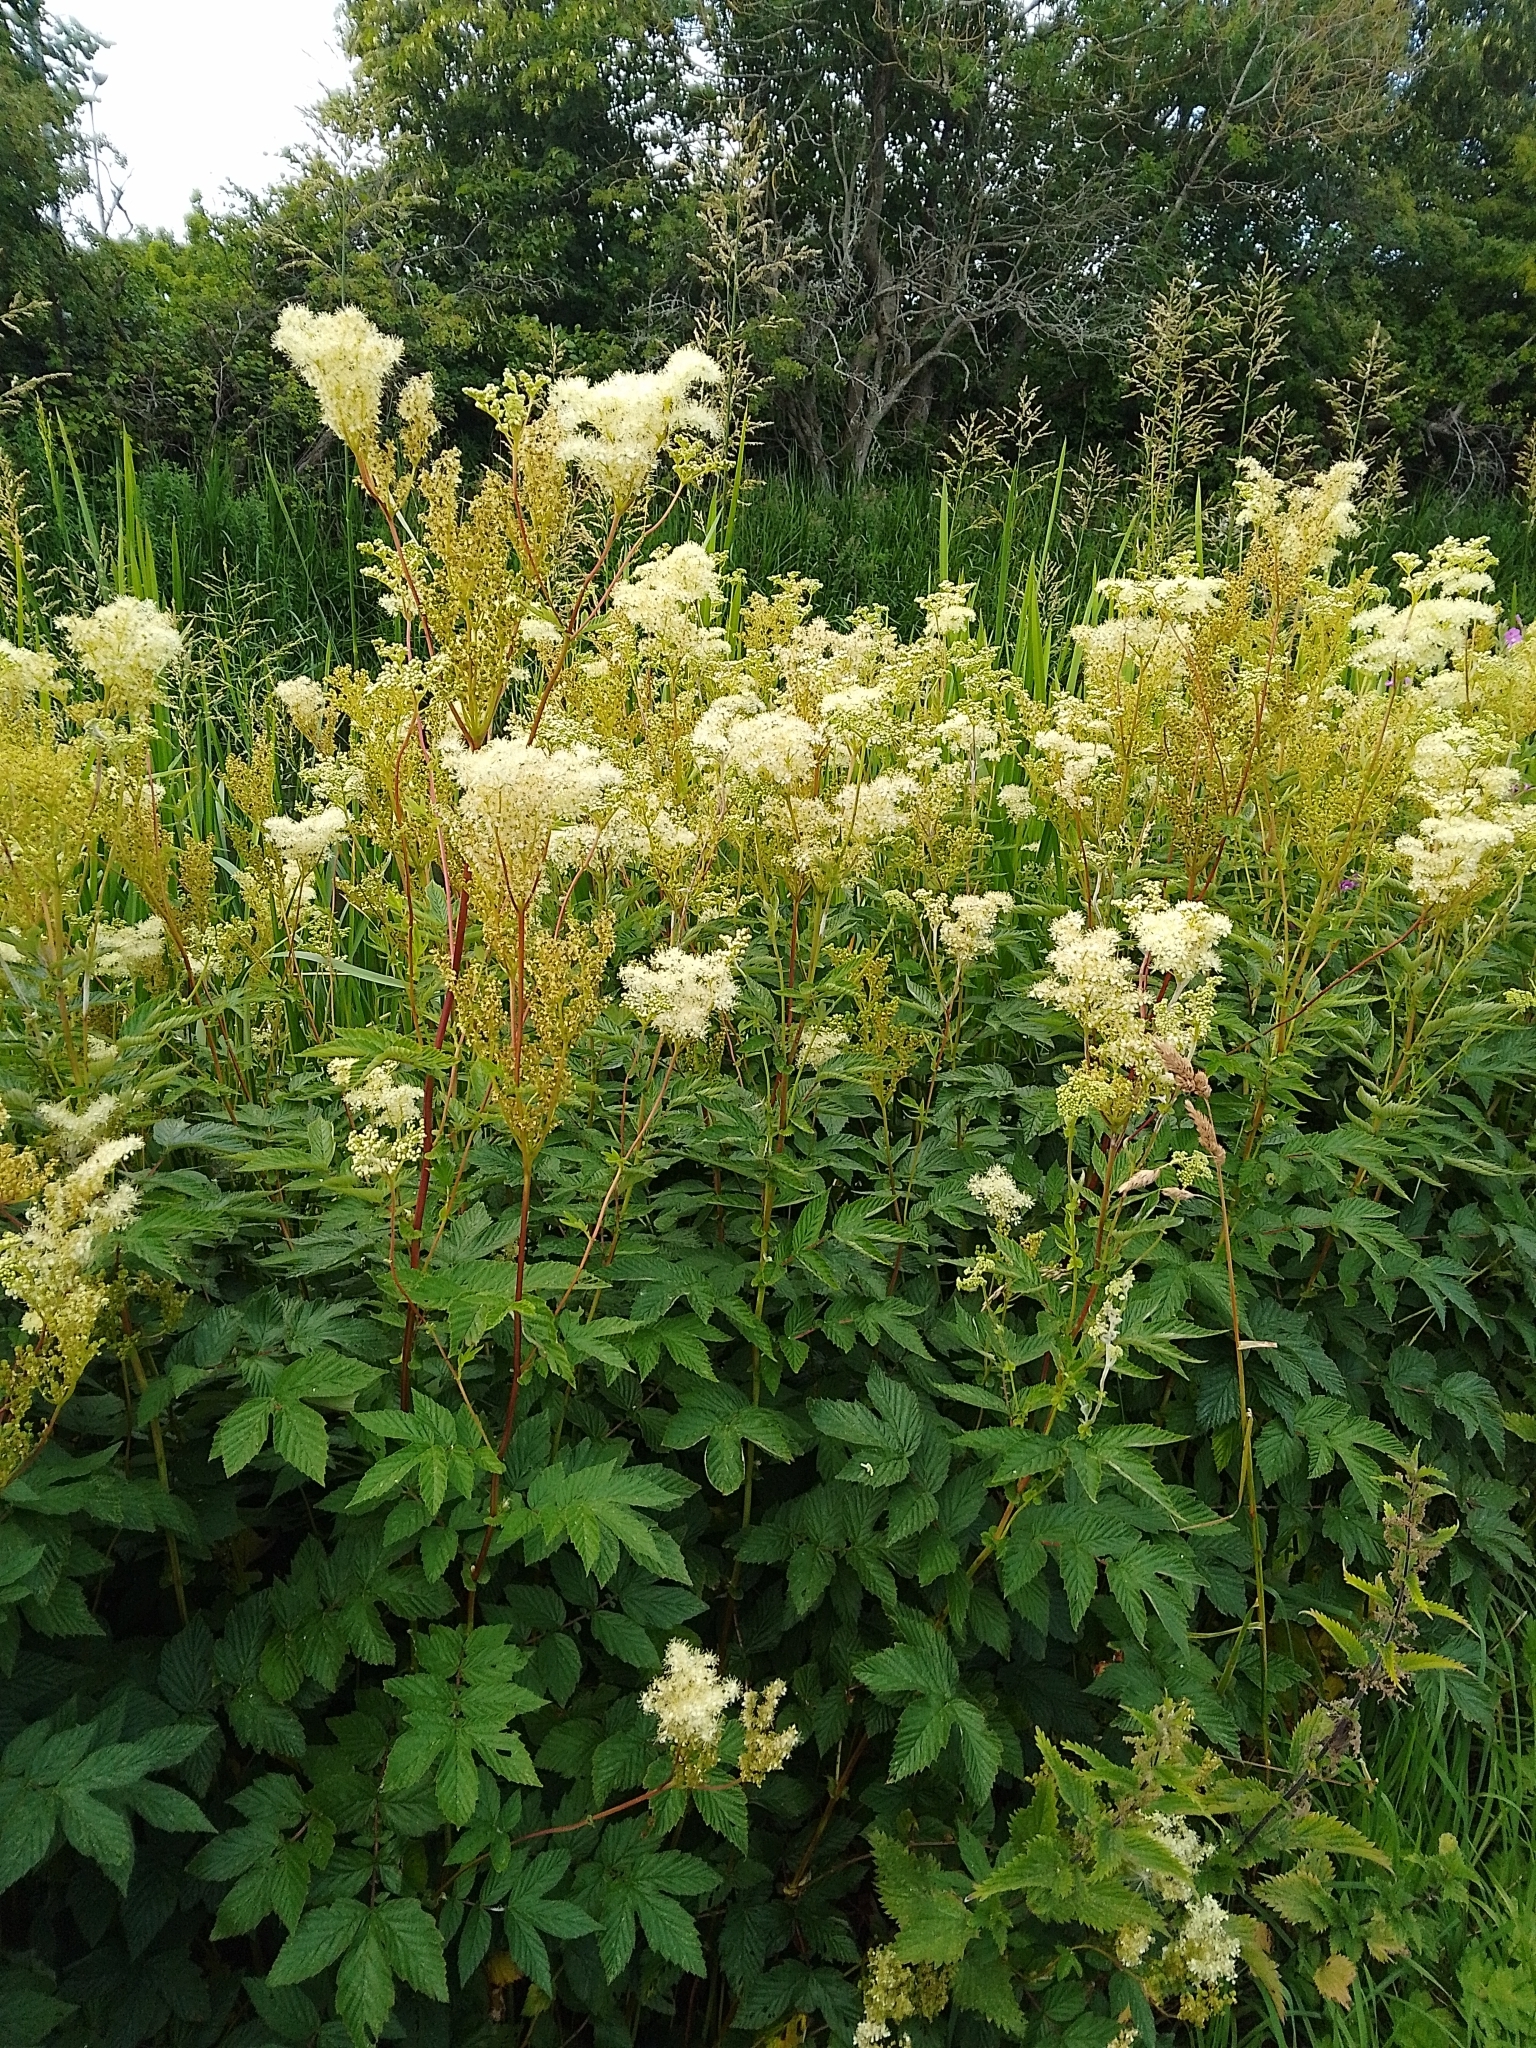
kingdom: Plantae
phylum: Tracheophyta
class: Magnoliopsida
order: Rosales
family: Rosaceae
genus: Filipendula
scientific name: Filipendula ulmaria
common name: Meadowsweet
